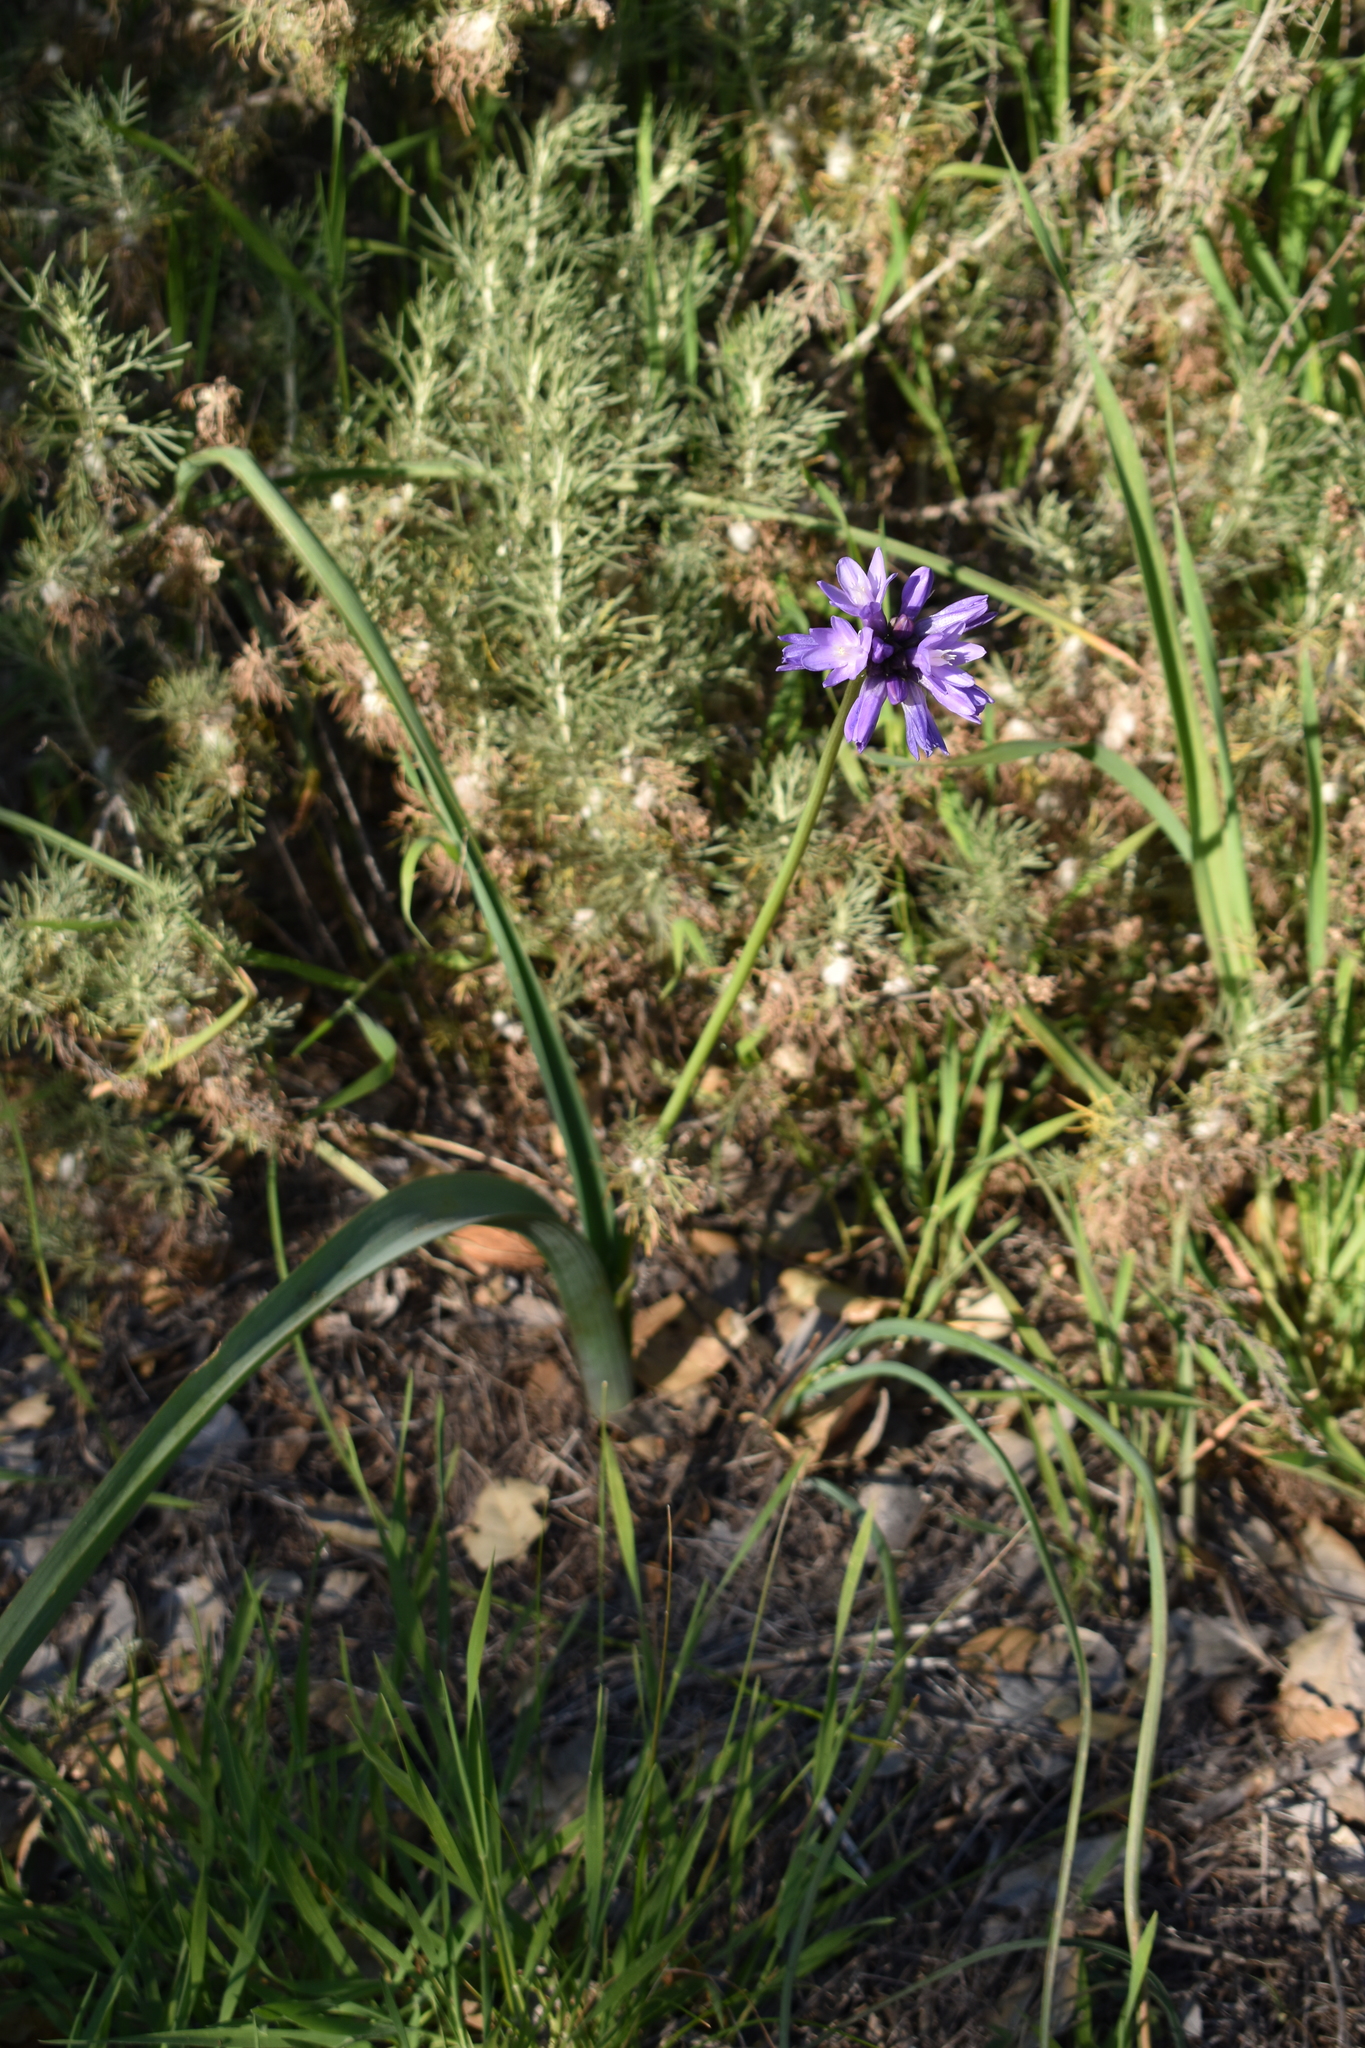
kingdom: Plantae
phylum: Tracheophyta
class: Liliopsida
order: Asparagales
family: Asparagaceae
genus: Dipterostemon
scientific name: Dipterostemon capitatus
